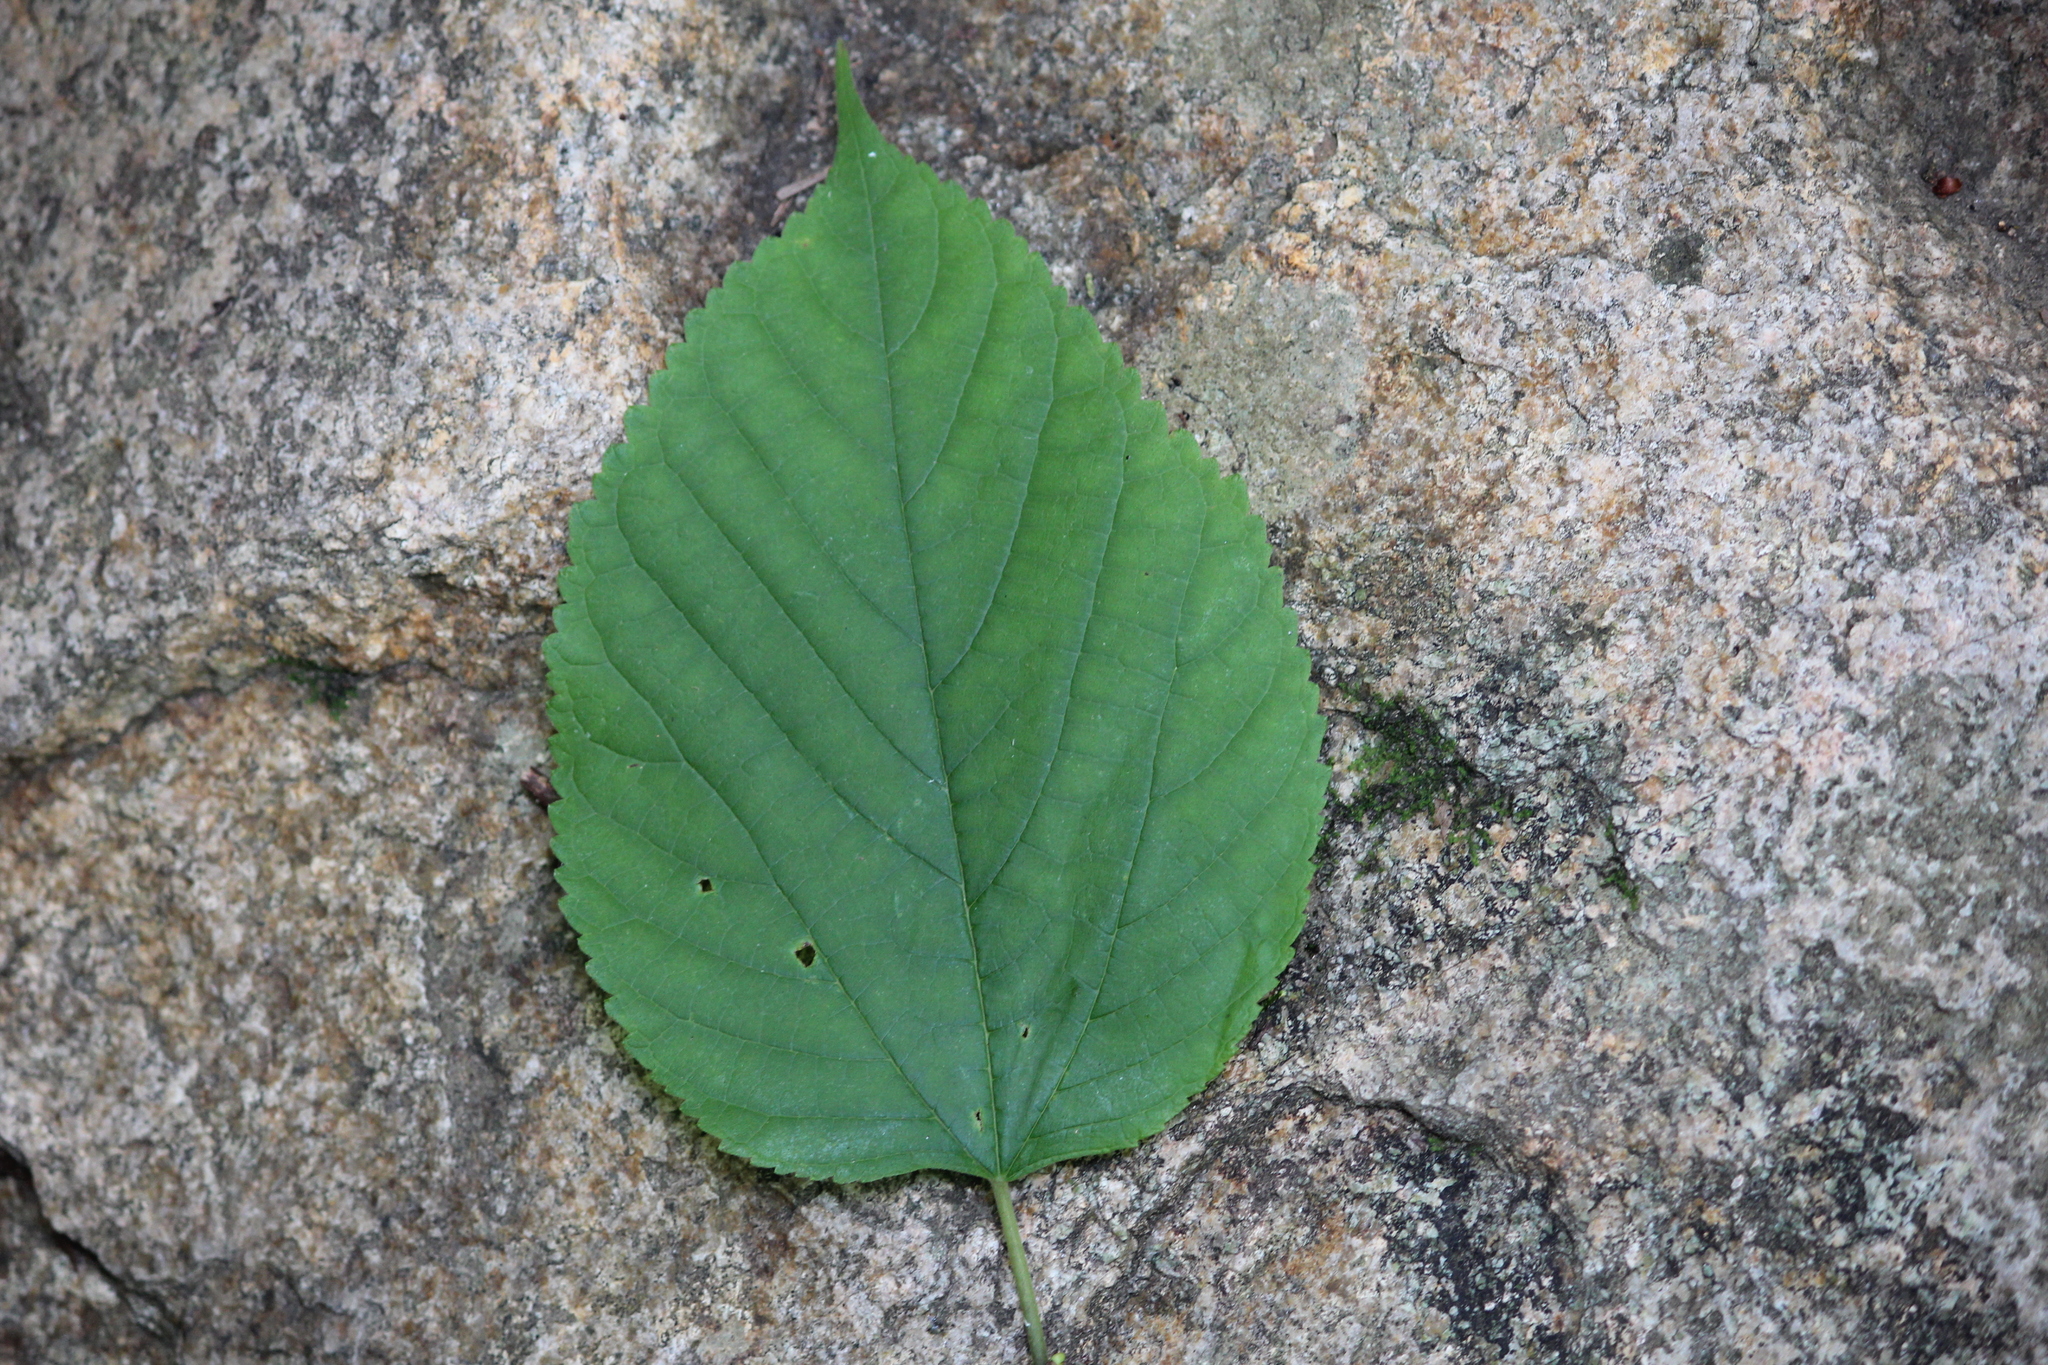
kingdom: Plantae
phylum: Tracheophyta
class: Magnoliopsida
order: Rosales
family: Moraceae
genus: Morus
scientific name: Morus rubra
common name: Red mulberry
